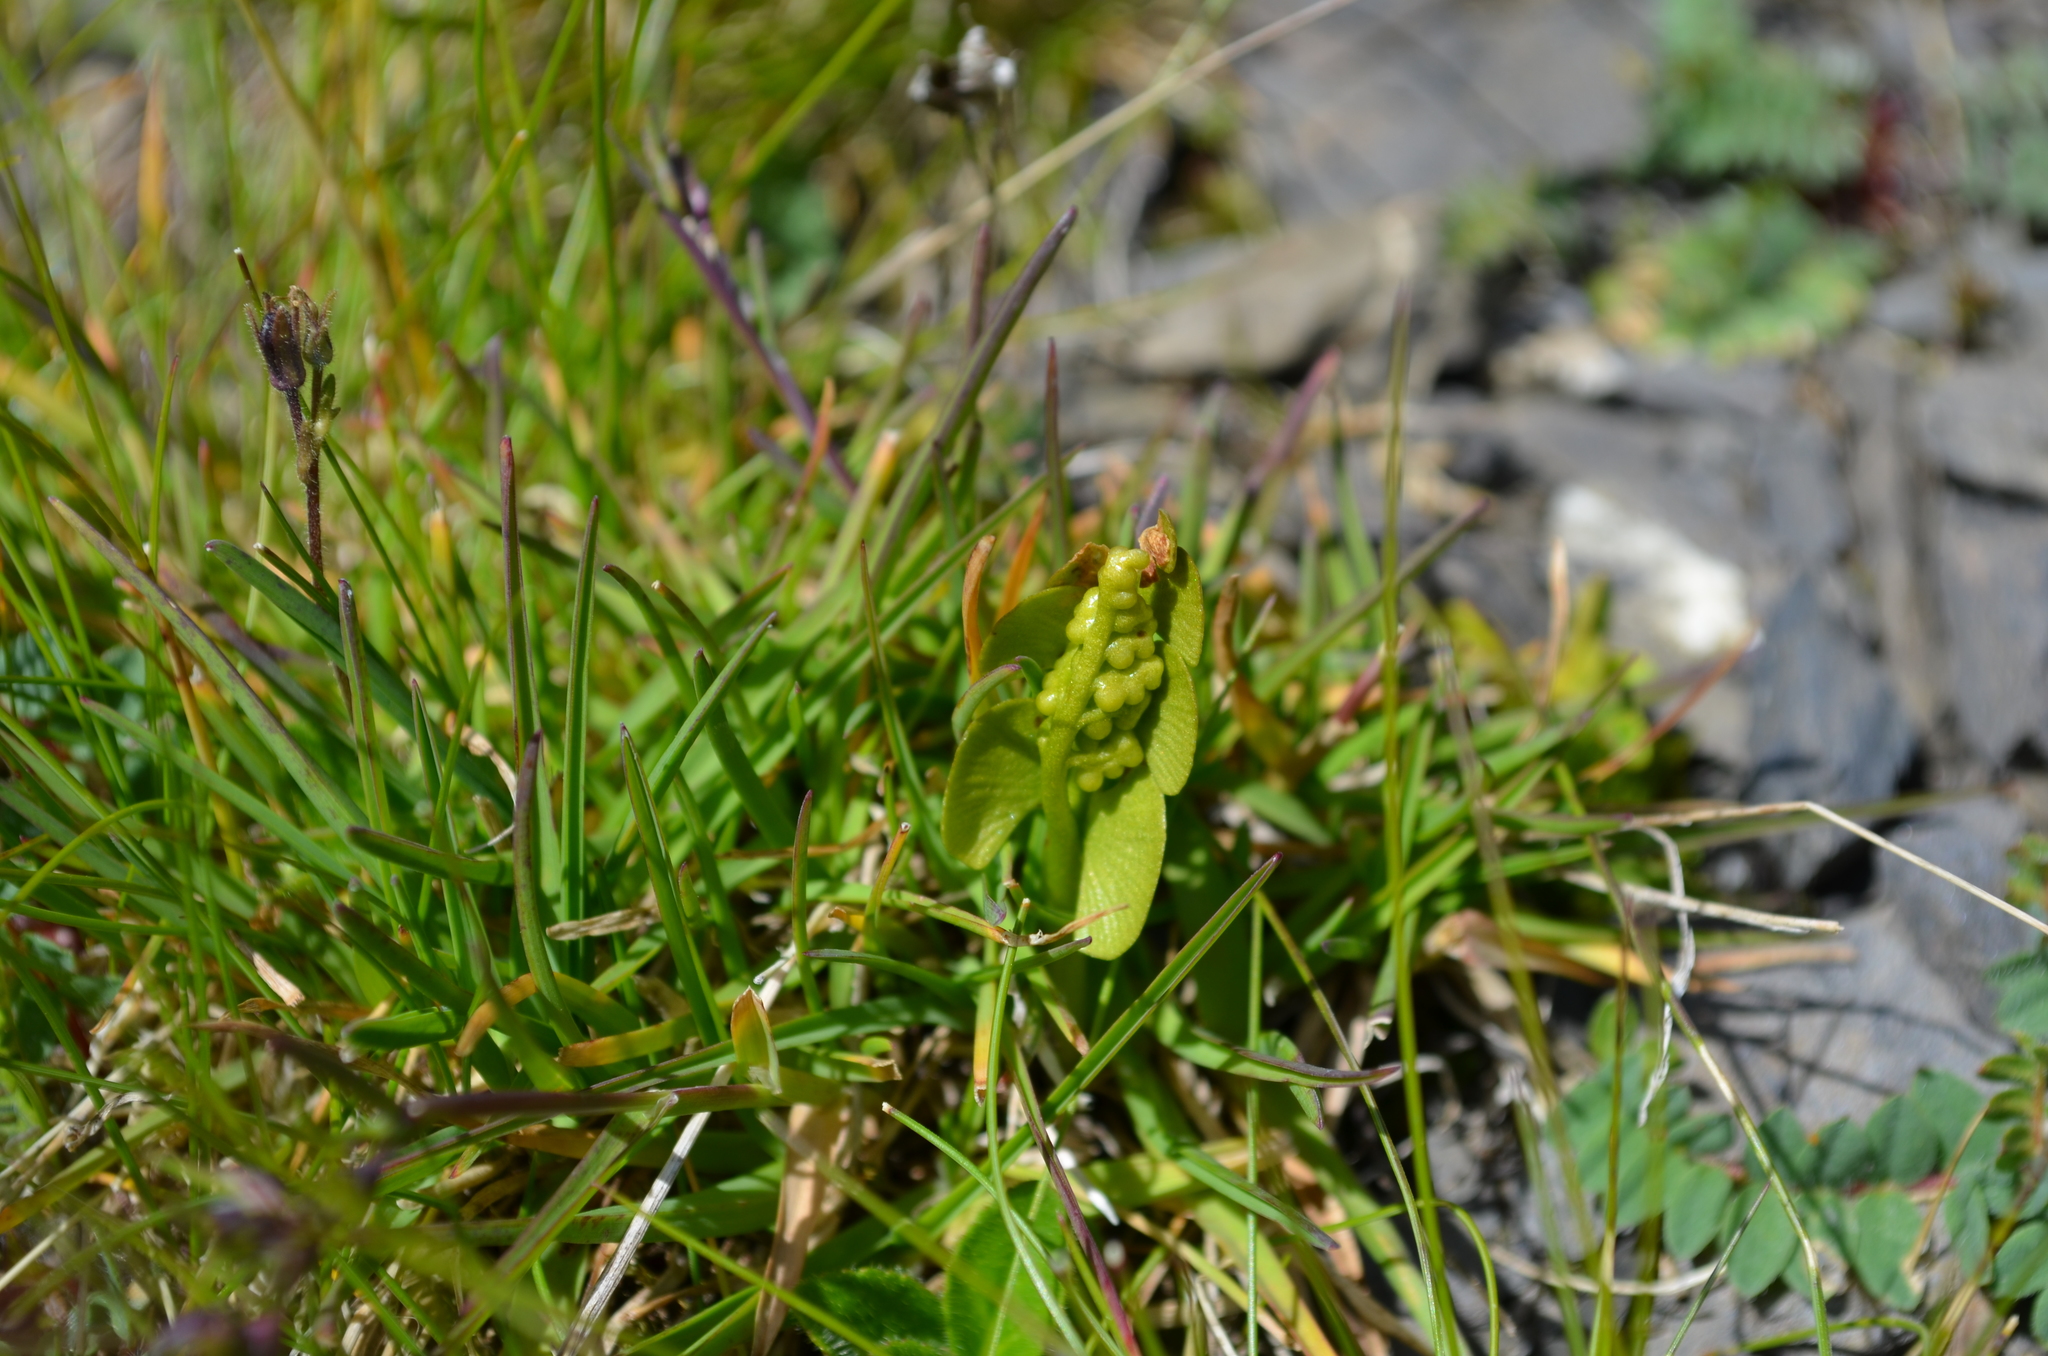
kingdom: Plantae
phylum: Tracheophyta
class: Polypodiopsida
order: Ophioglossales
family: Ophioglossaceae
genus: Botrychium
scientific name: Botrychium lunaria
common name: Moonwort
